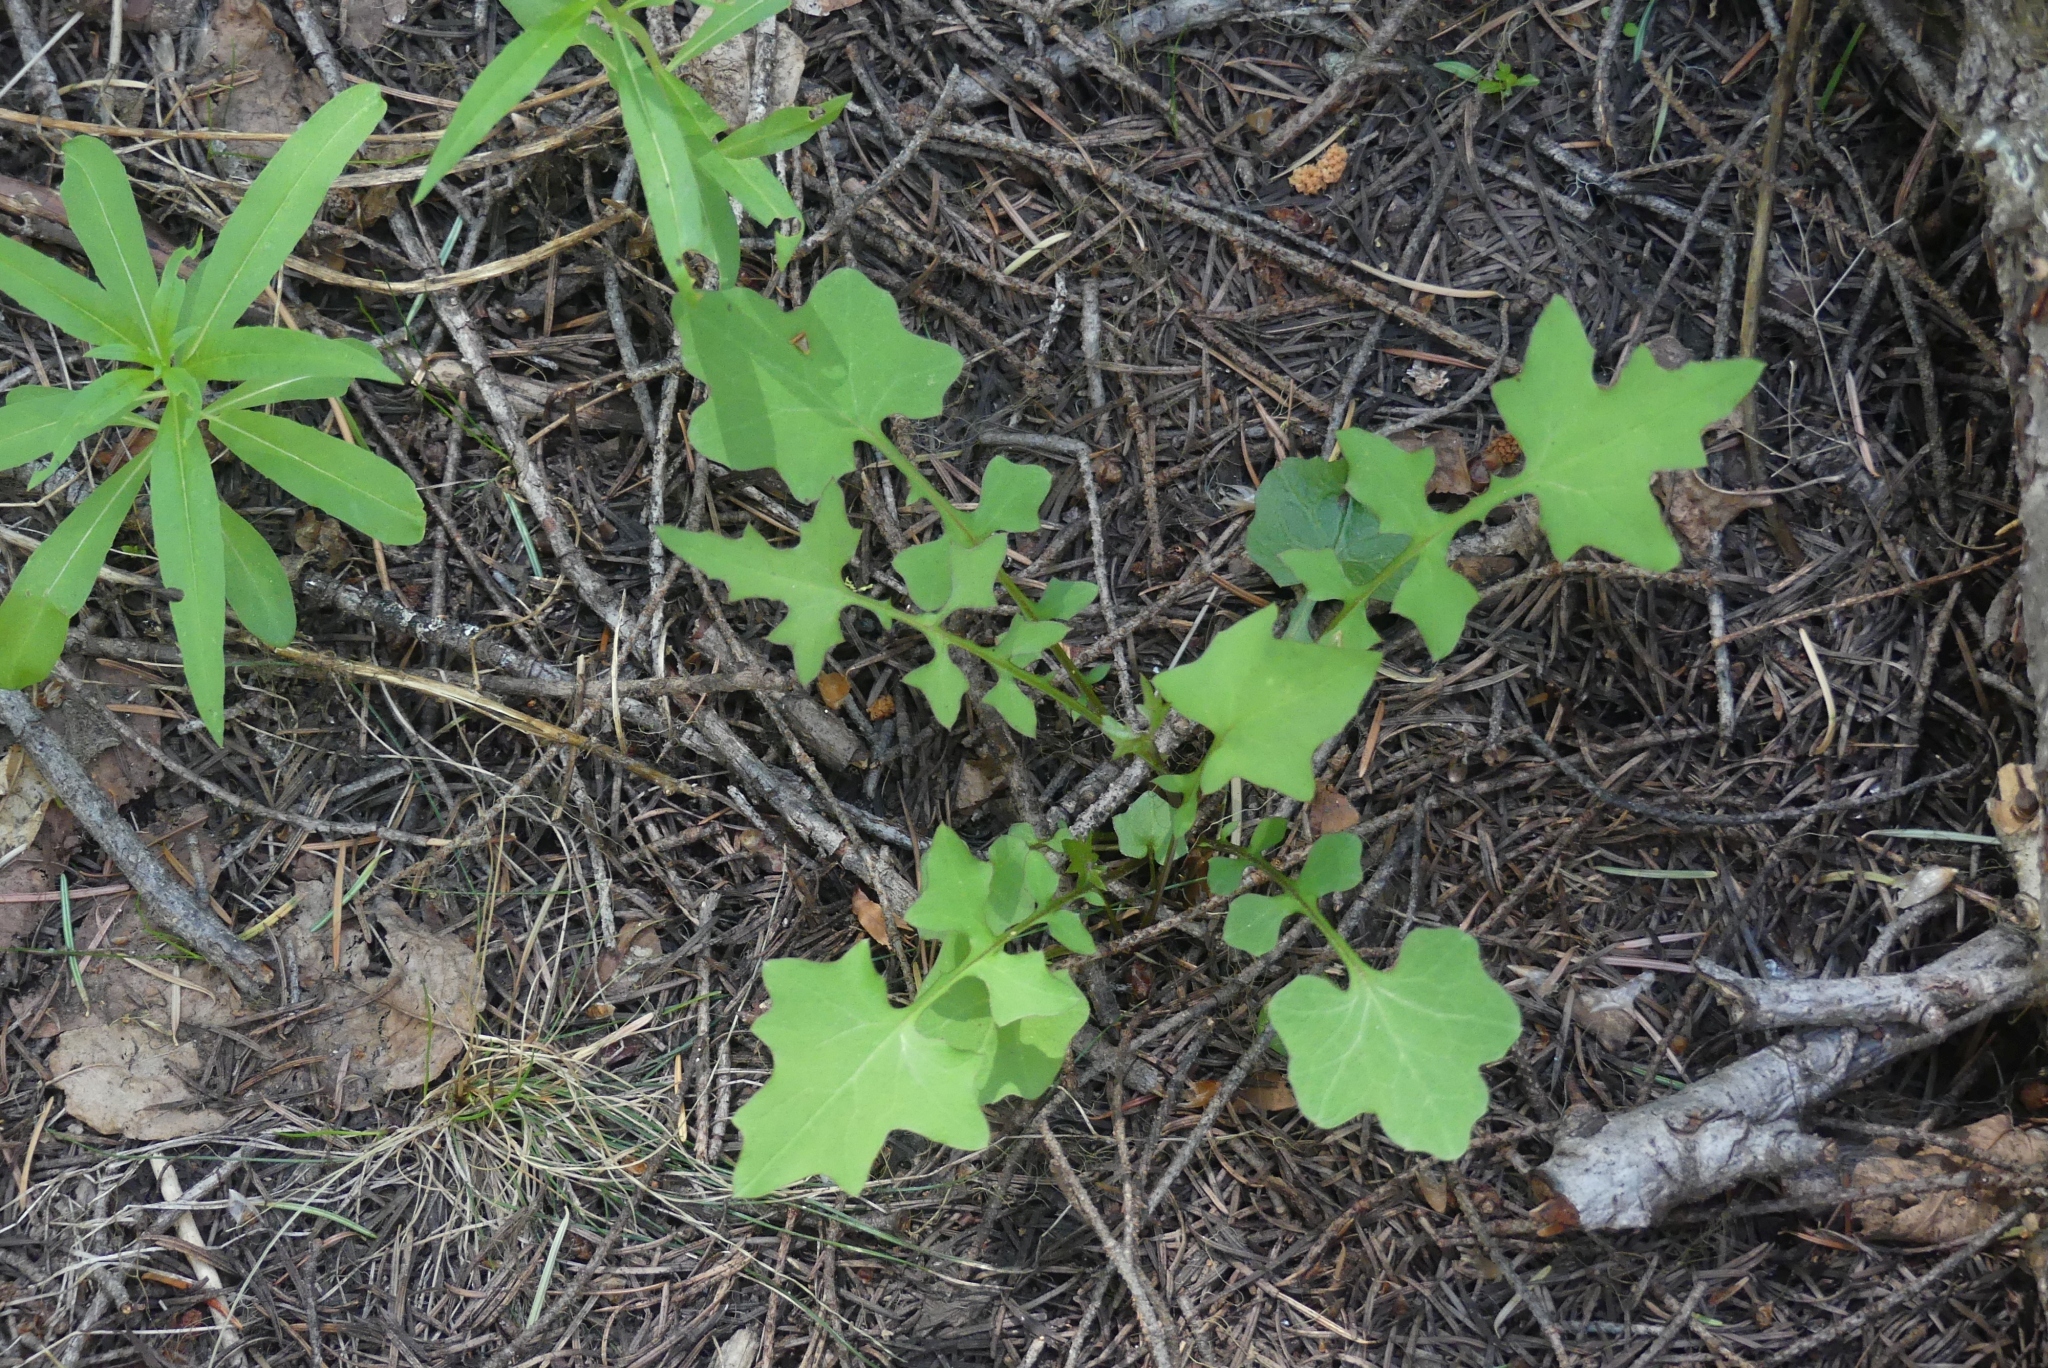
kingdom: Plantae
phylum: Tracheophyta
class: Magnoliopsida
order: Asterales
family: Asteraceae
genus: Mycelis
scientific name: Mycelis muralis
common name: Wall lettuce
